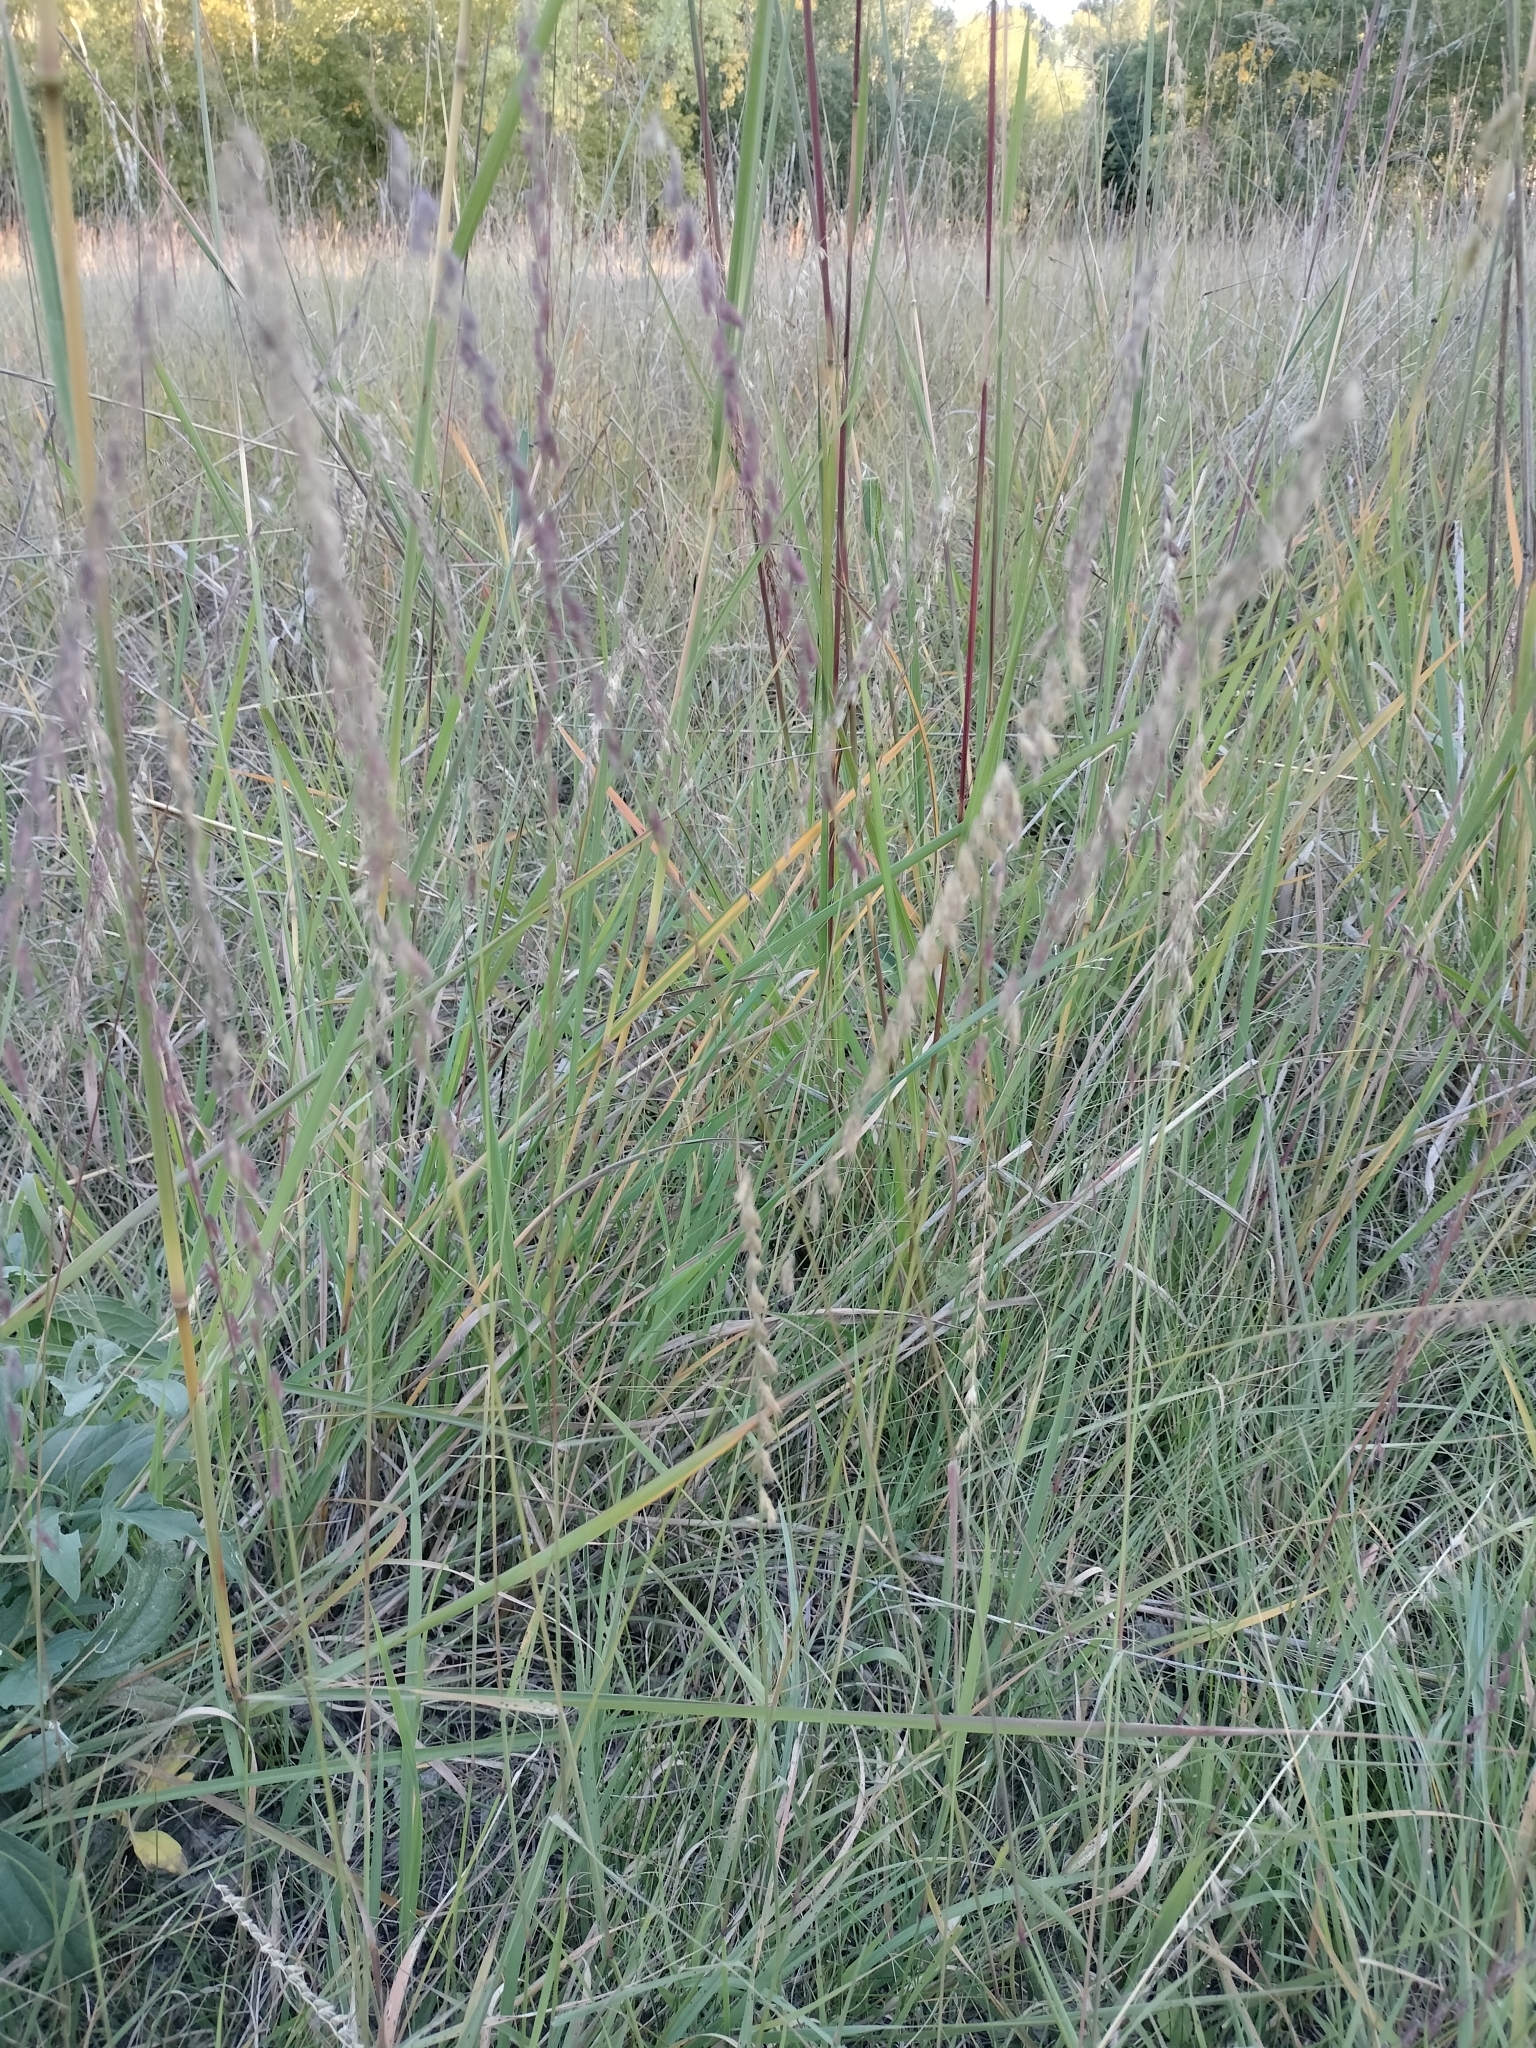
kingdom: Plantae
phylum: Tracheophyta
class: Liliopsida
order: Poales
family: Poaceae
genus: Bouteloua
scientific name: Bouteloua curtipendula
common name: Side-oats grama
